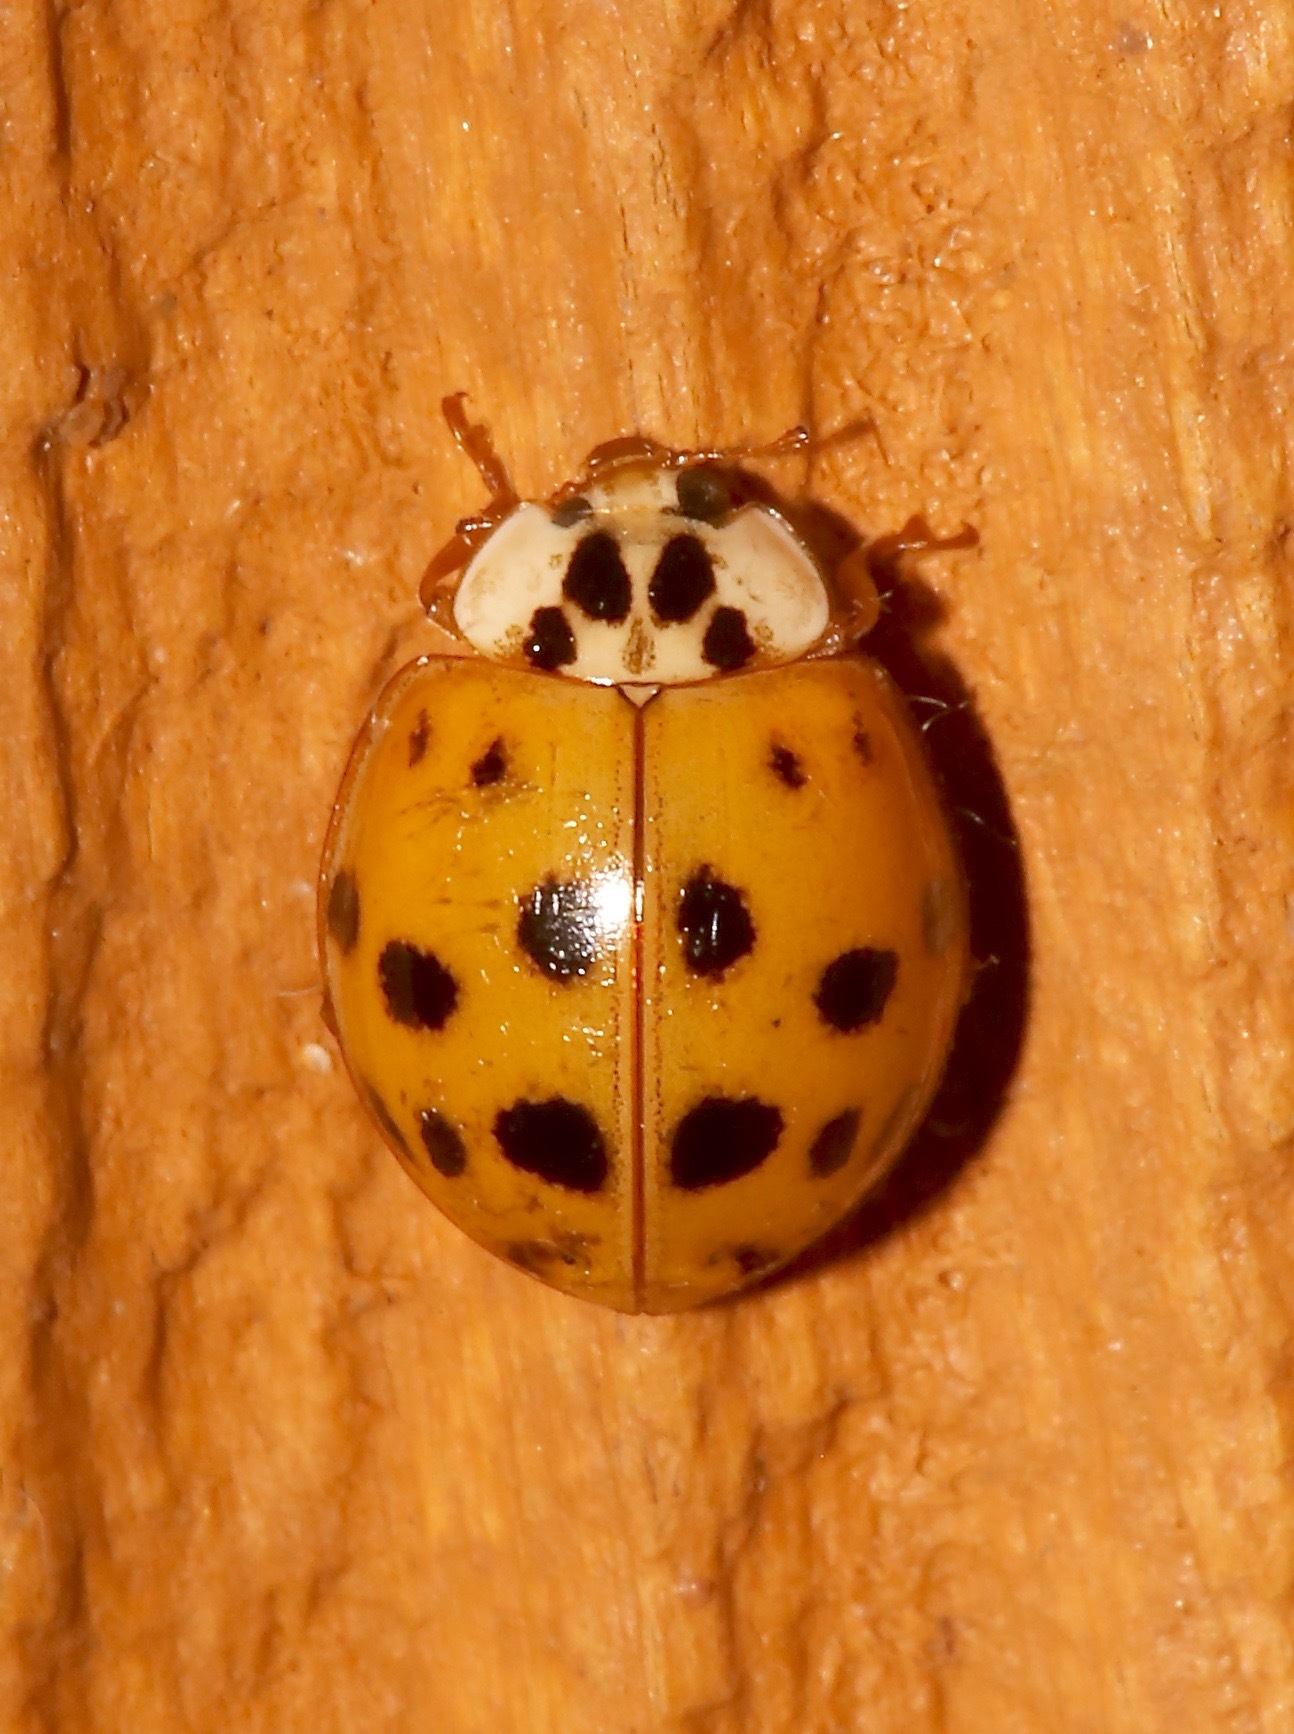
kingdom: Animalia
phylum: Arthropoda
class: Insecta
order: Coleoptera
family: Coccinellidae
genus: Harmonia
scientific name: Harmonia axyridis
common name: Harlequin ladybird
